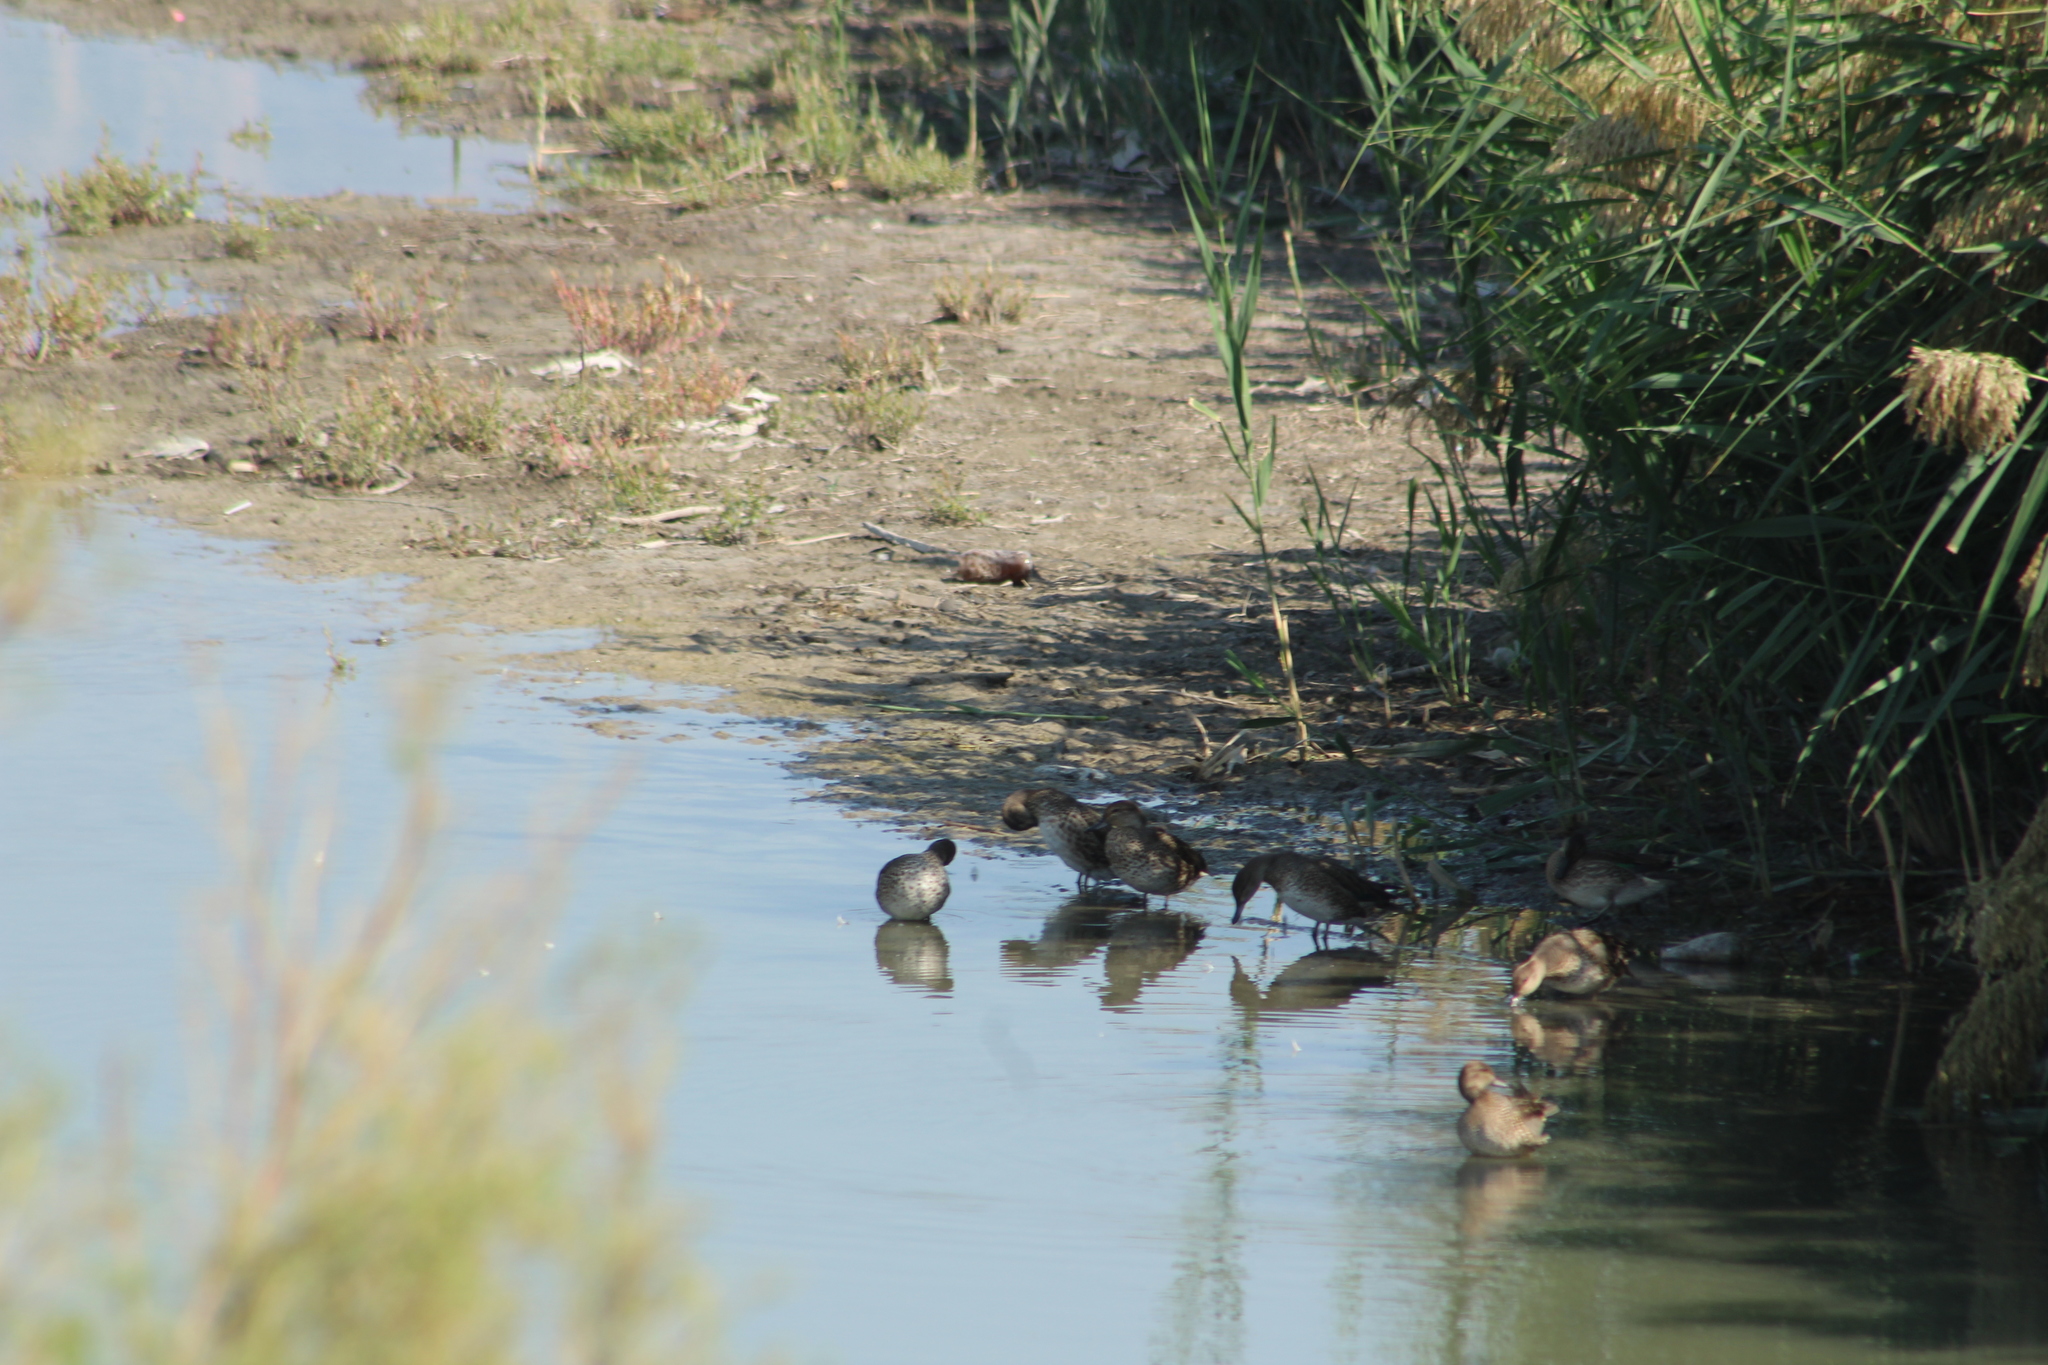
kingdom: Animalia
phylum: Chordata
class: Aves
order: Anseriformes
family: Anatidae
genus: Anas
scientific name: Anas crecca
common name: Eurasian teal
